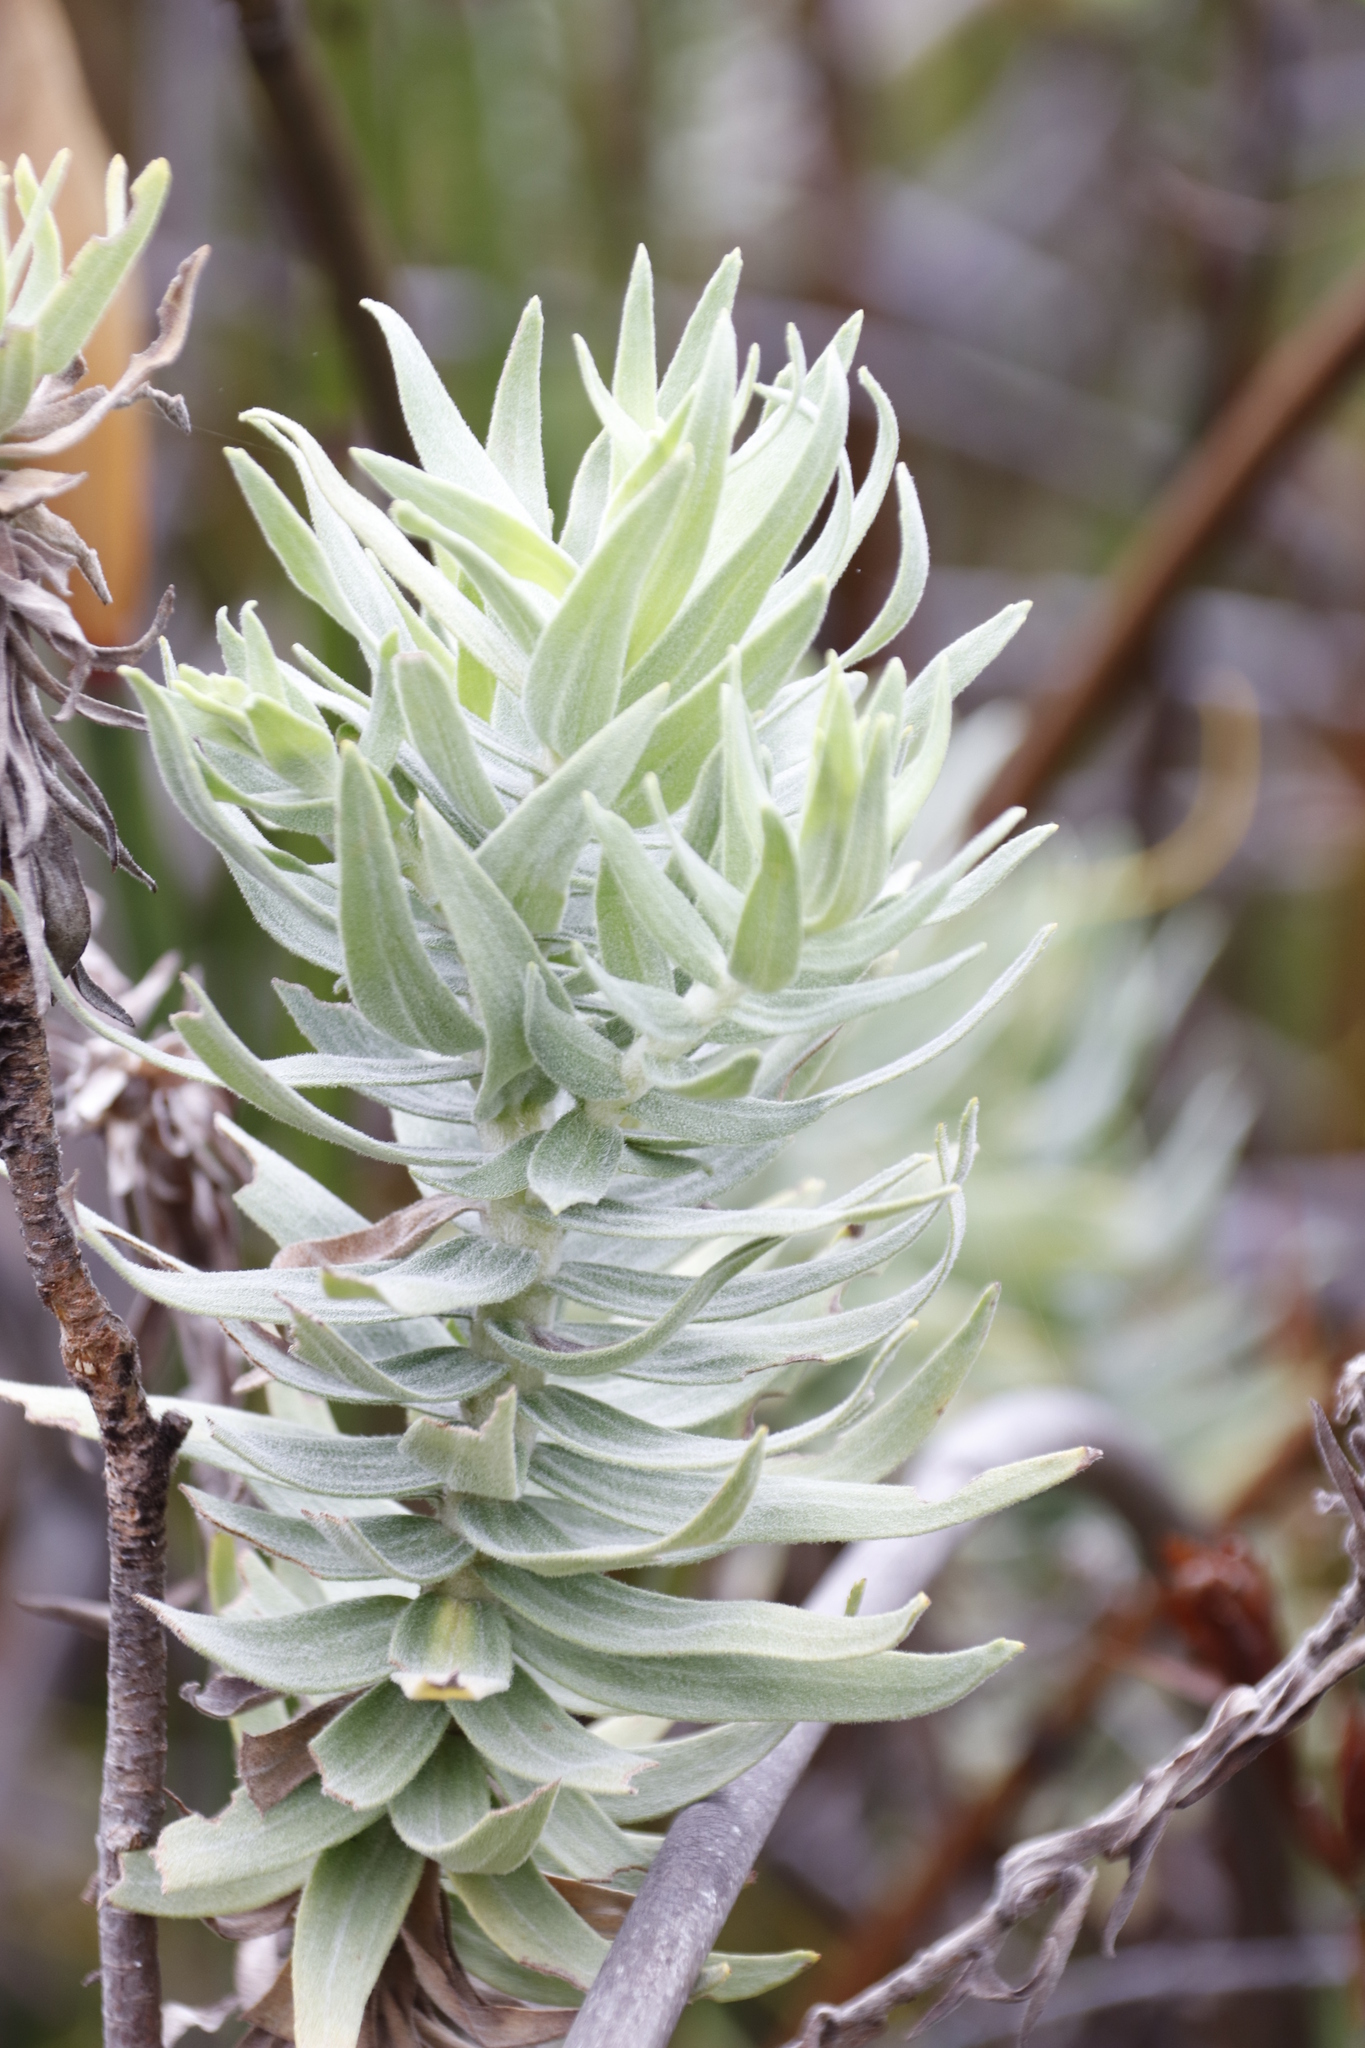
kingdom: Plantae
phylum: Tracheophyta
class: Magnoliopsida
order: Asterales
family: Asteraceae
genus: Osmitopsis
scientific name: Osmitopsis asteriscoides
